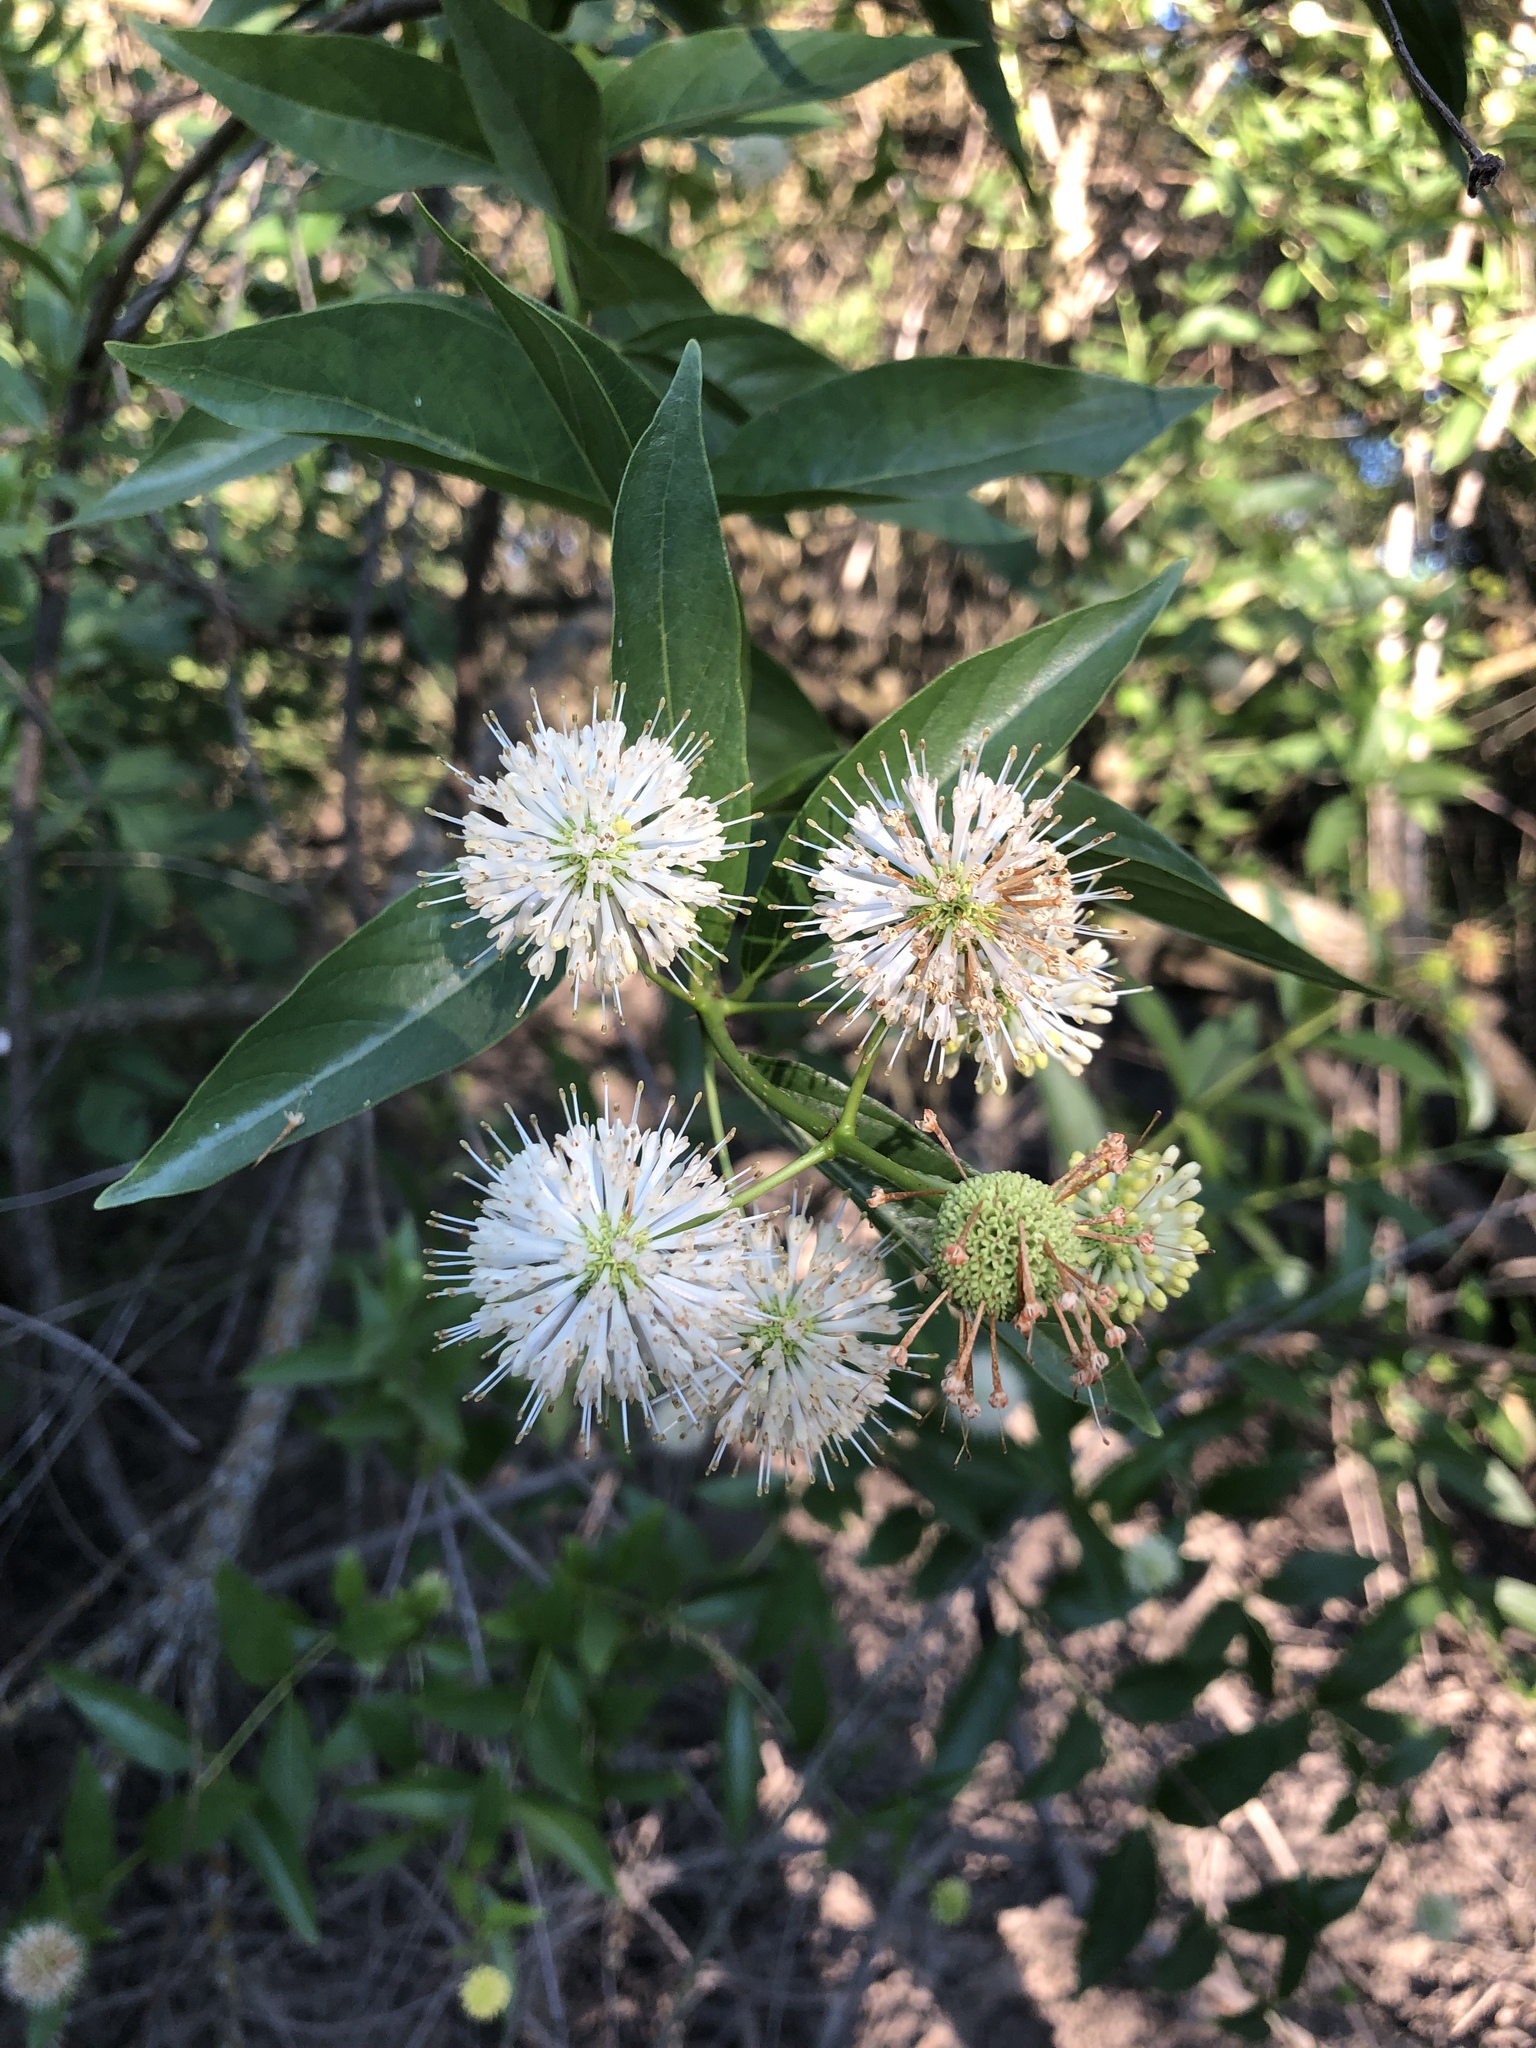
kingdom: Plantae
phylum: Tracheophyta
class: Magnoliopsida
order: Gentianales
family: Rubiaceae
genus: Cephalanthus
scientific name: Cephalanthus occidentalis
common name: Button-willow
